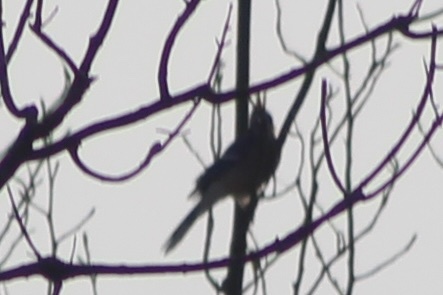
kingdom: Animalia
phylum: Chordata
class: Aves
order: Passeriformes
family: Corvidae
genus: Cyanocitta
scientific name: Cyanocitta cristata
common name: Blue jay
